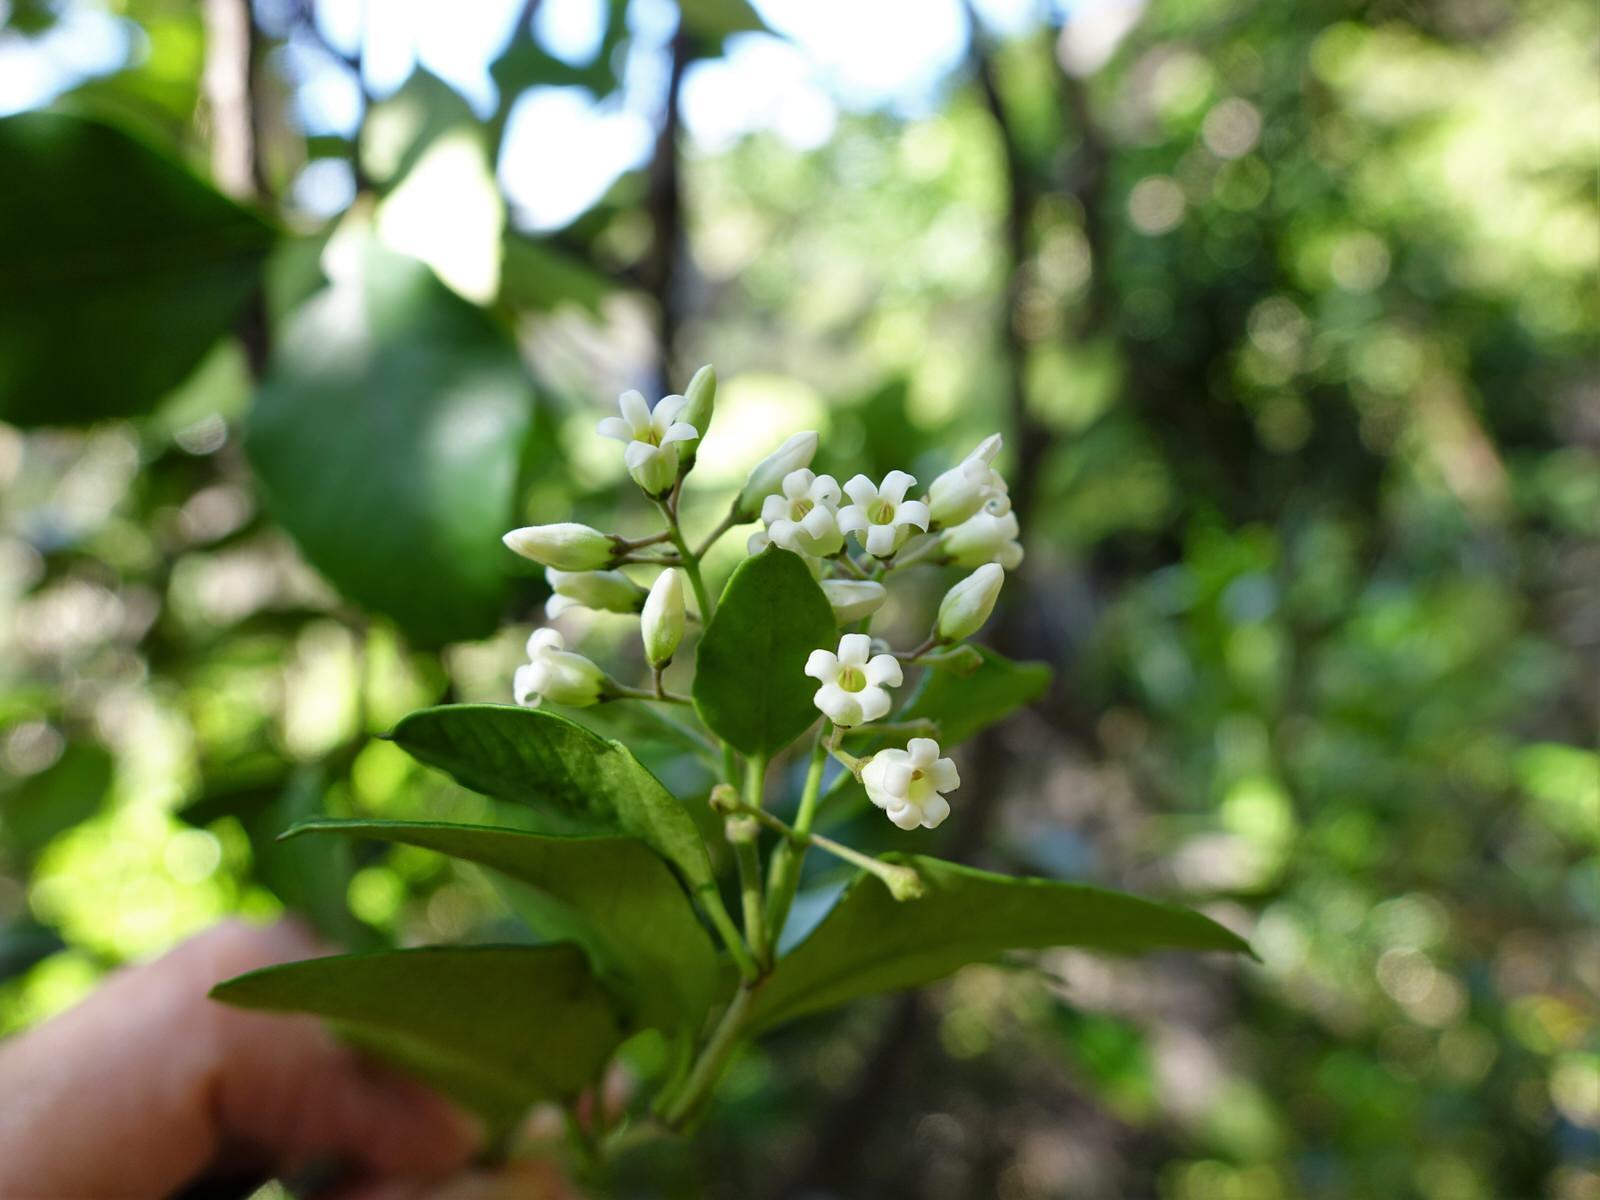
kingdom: Plantae
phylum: Tracheophyta
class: Magnoliopsida
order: Gentianales
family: Apocynaceae
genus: Parsonsia
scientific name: Parsonsia heterophylla
